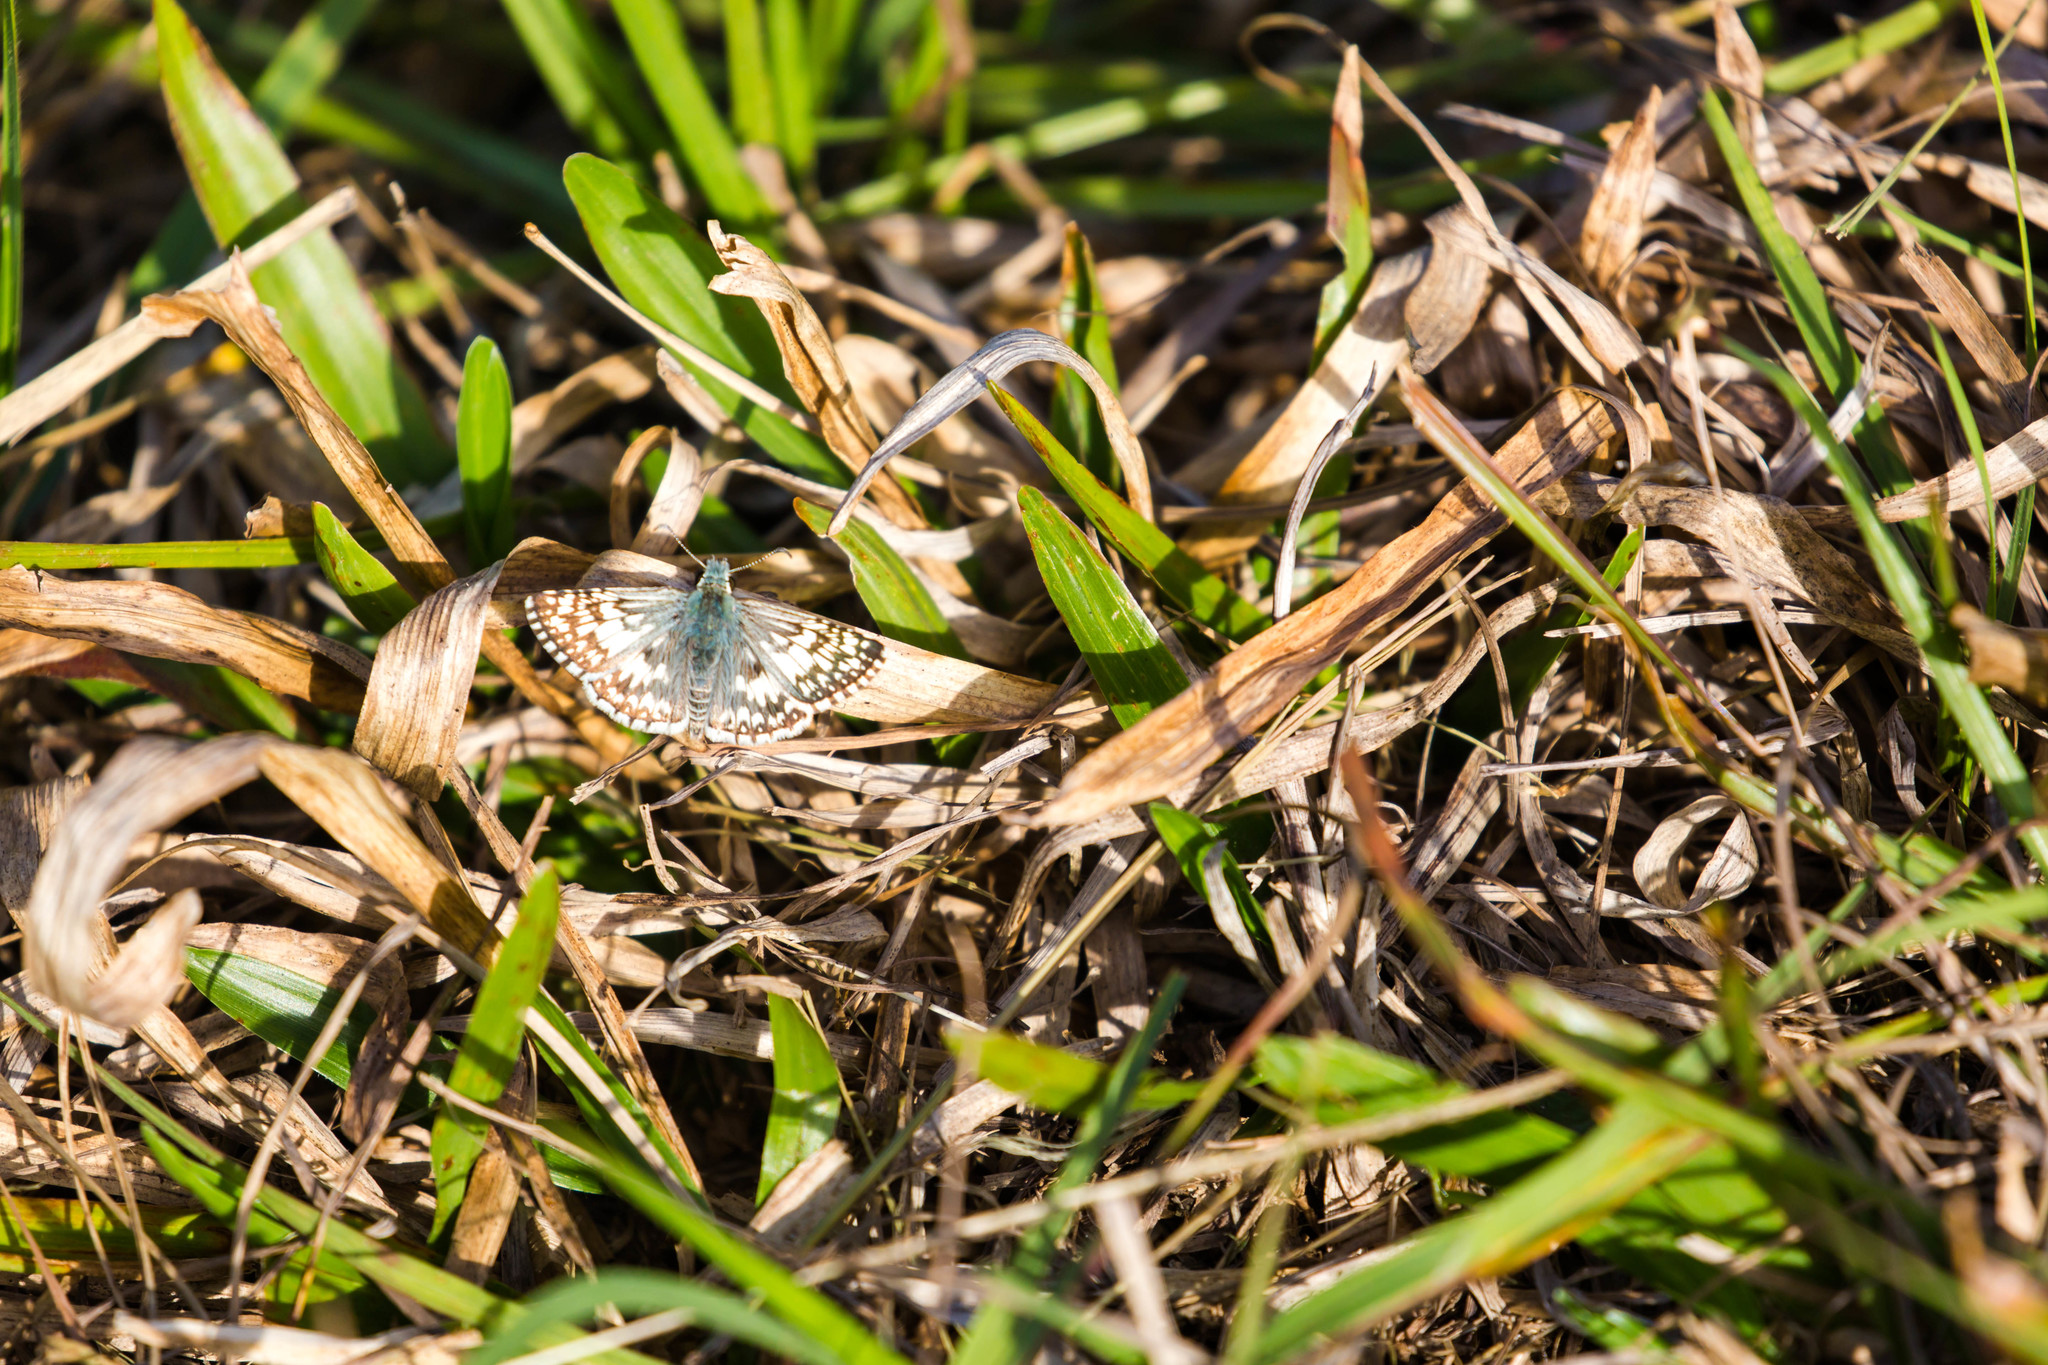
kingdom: Animalia
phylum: Arthropoda
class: Insecta
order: Lepidoptera
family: Hesperiidae
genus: Burnsius
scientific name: Burnsius albezens
